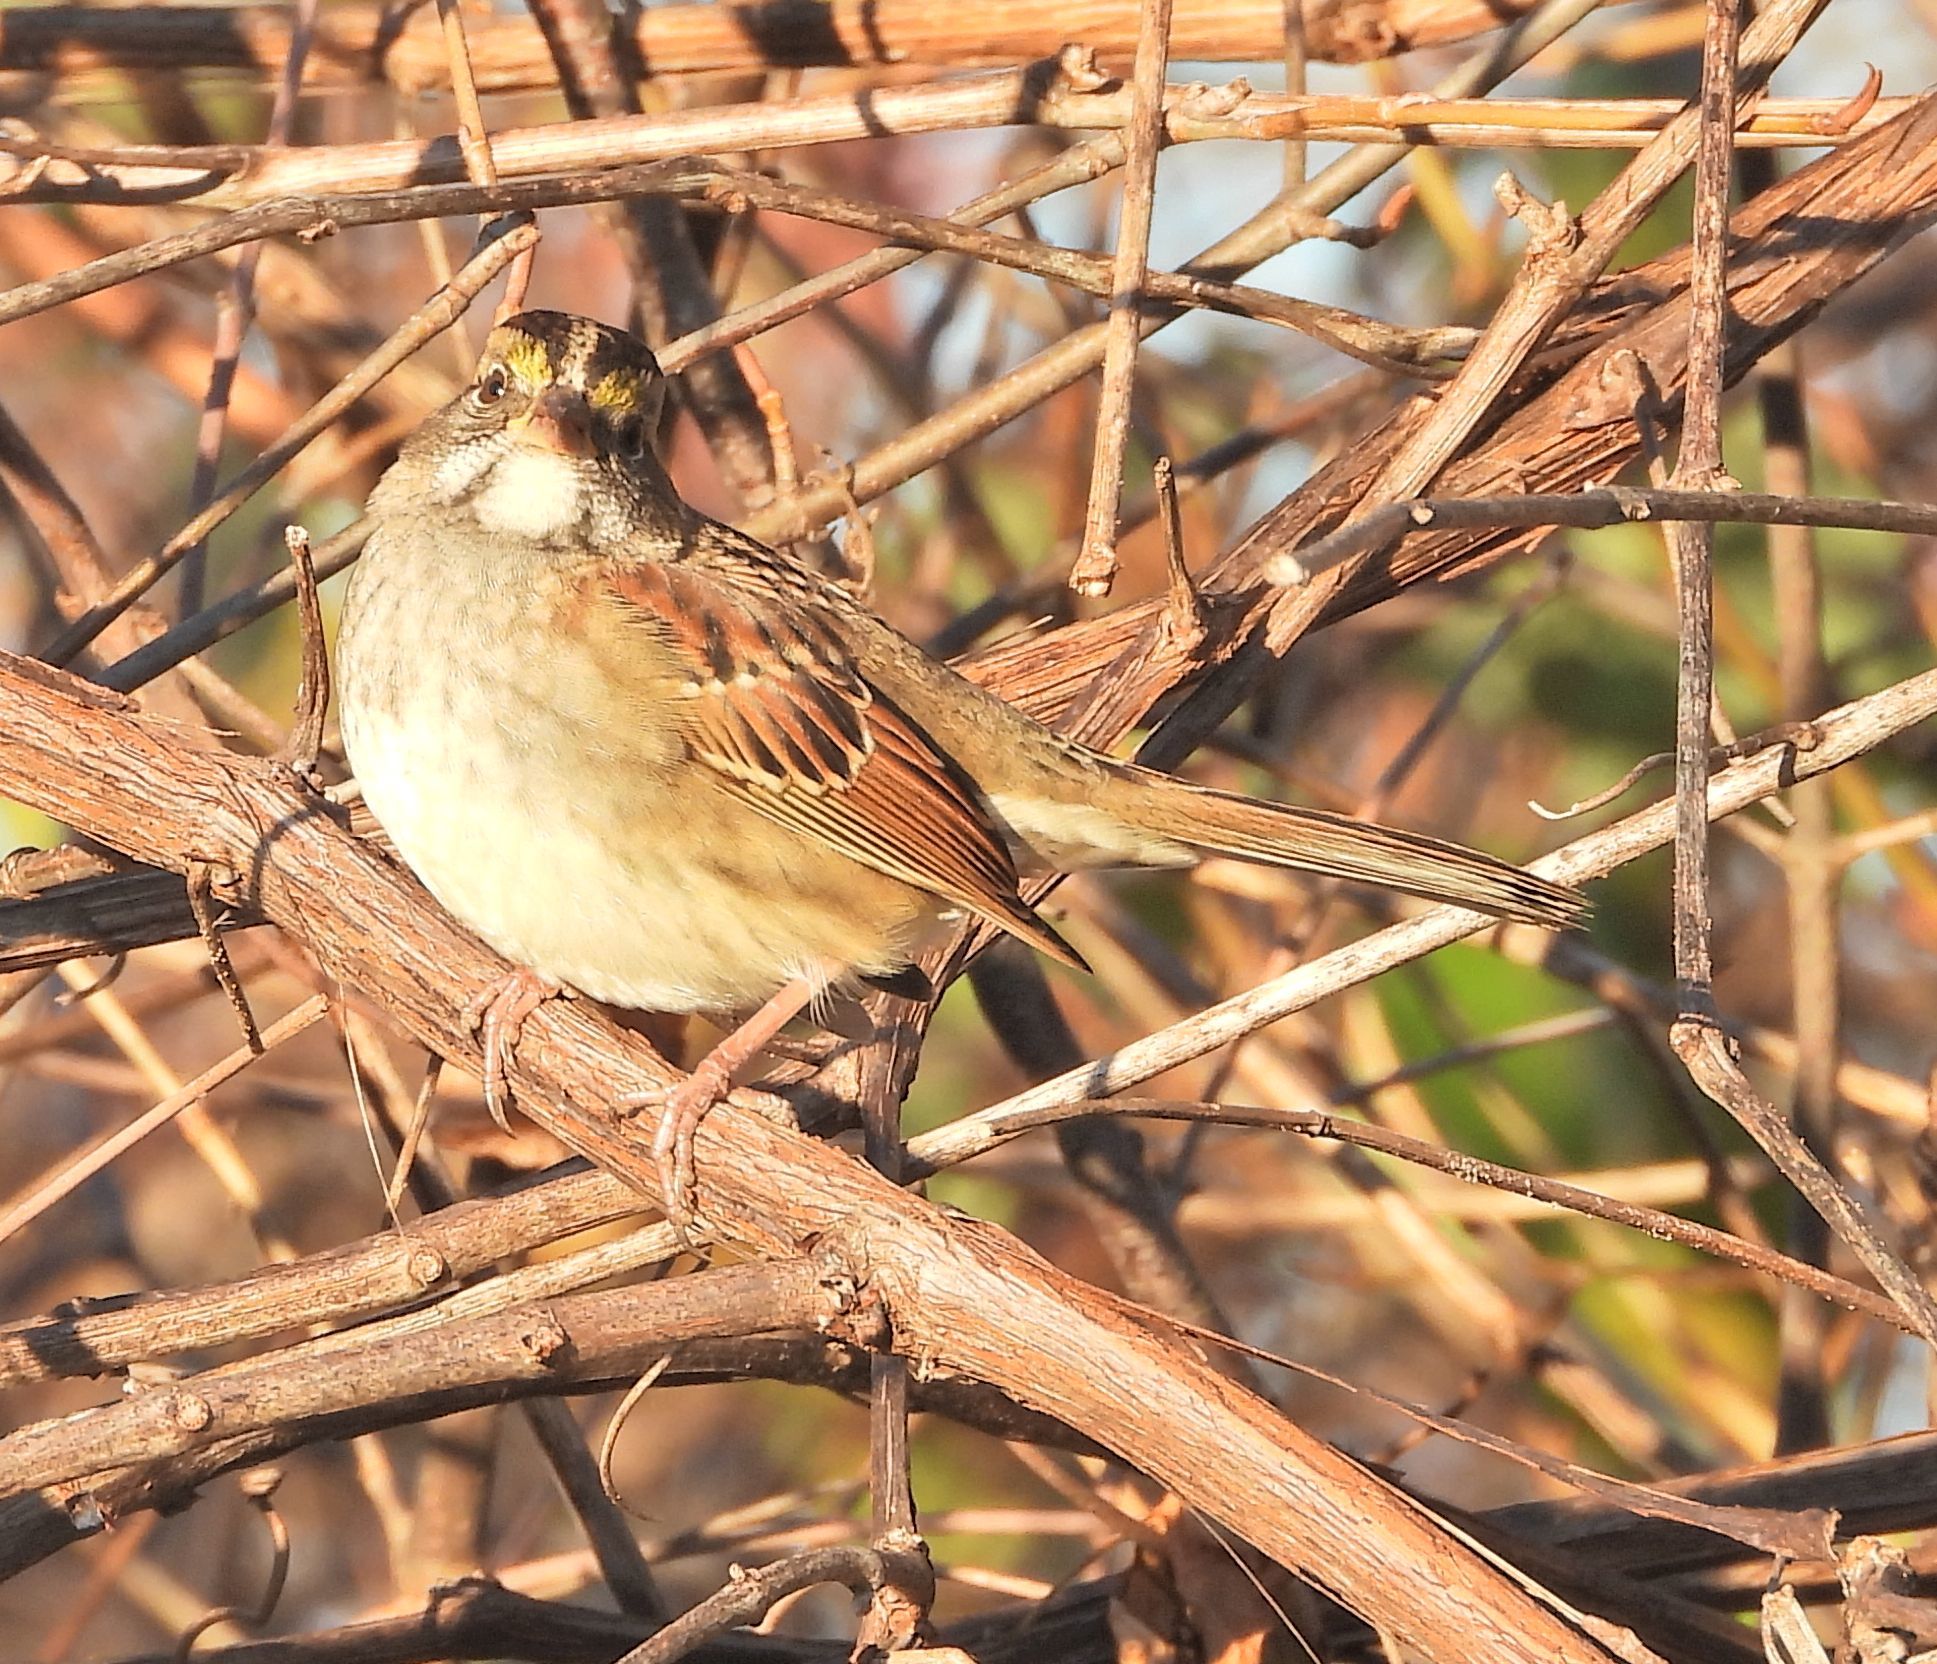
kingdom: Animalia
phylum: Chordata
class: Aves
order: Passeriformes
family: Passerellidae
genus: Zonotrichia
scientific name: Zonotrichia albicollis
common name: White-throated sparrow
